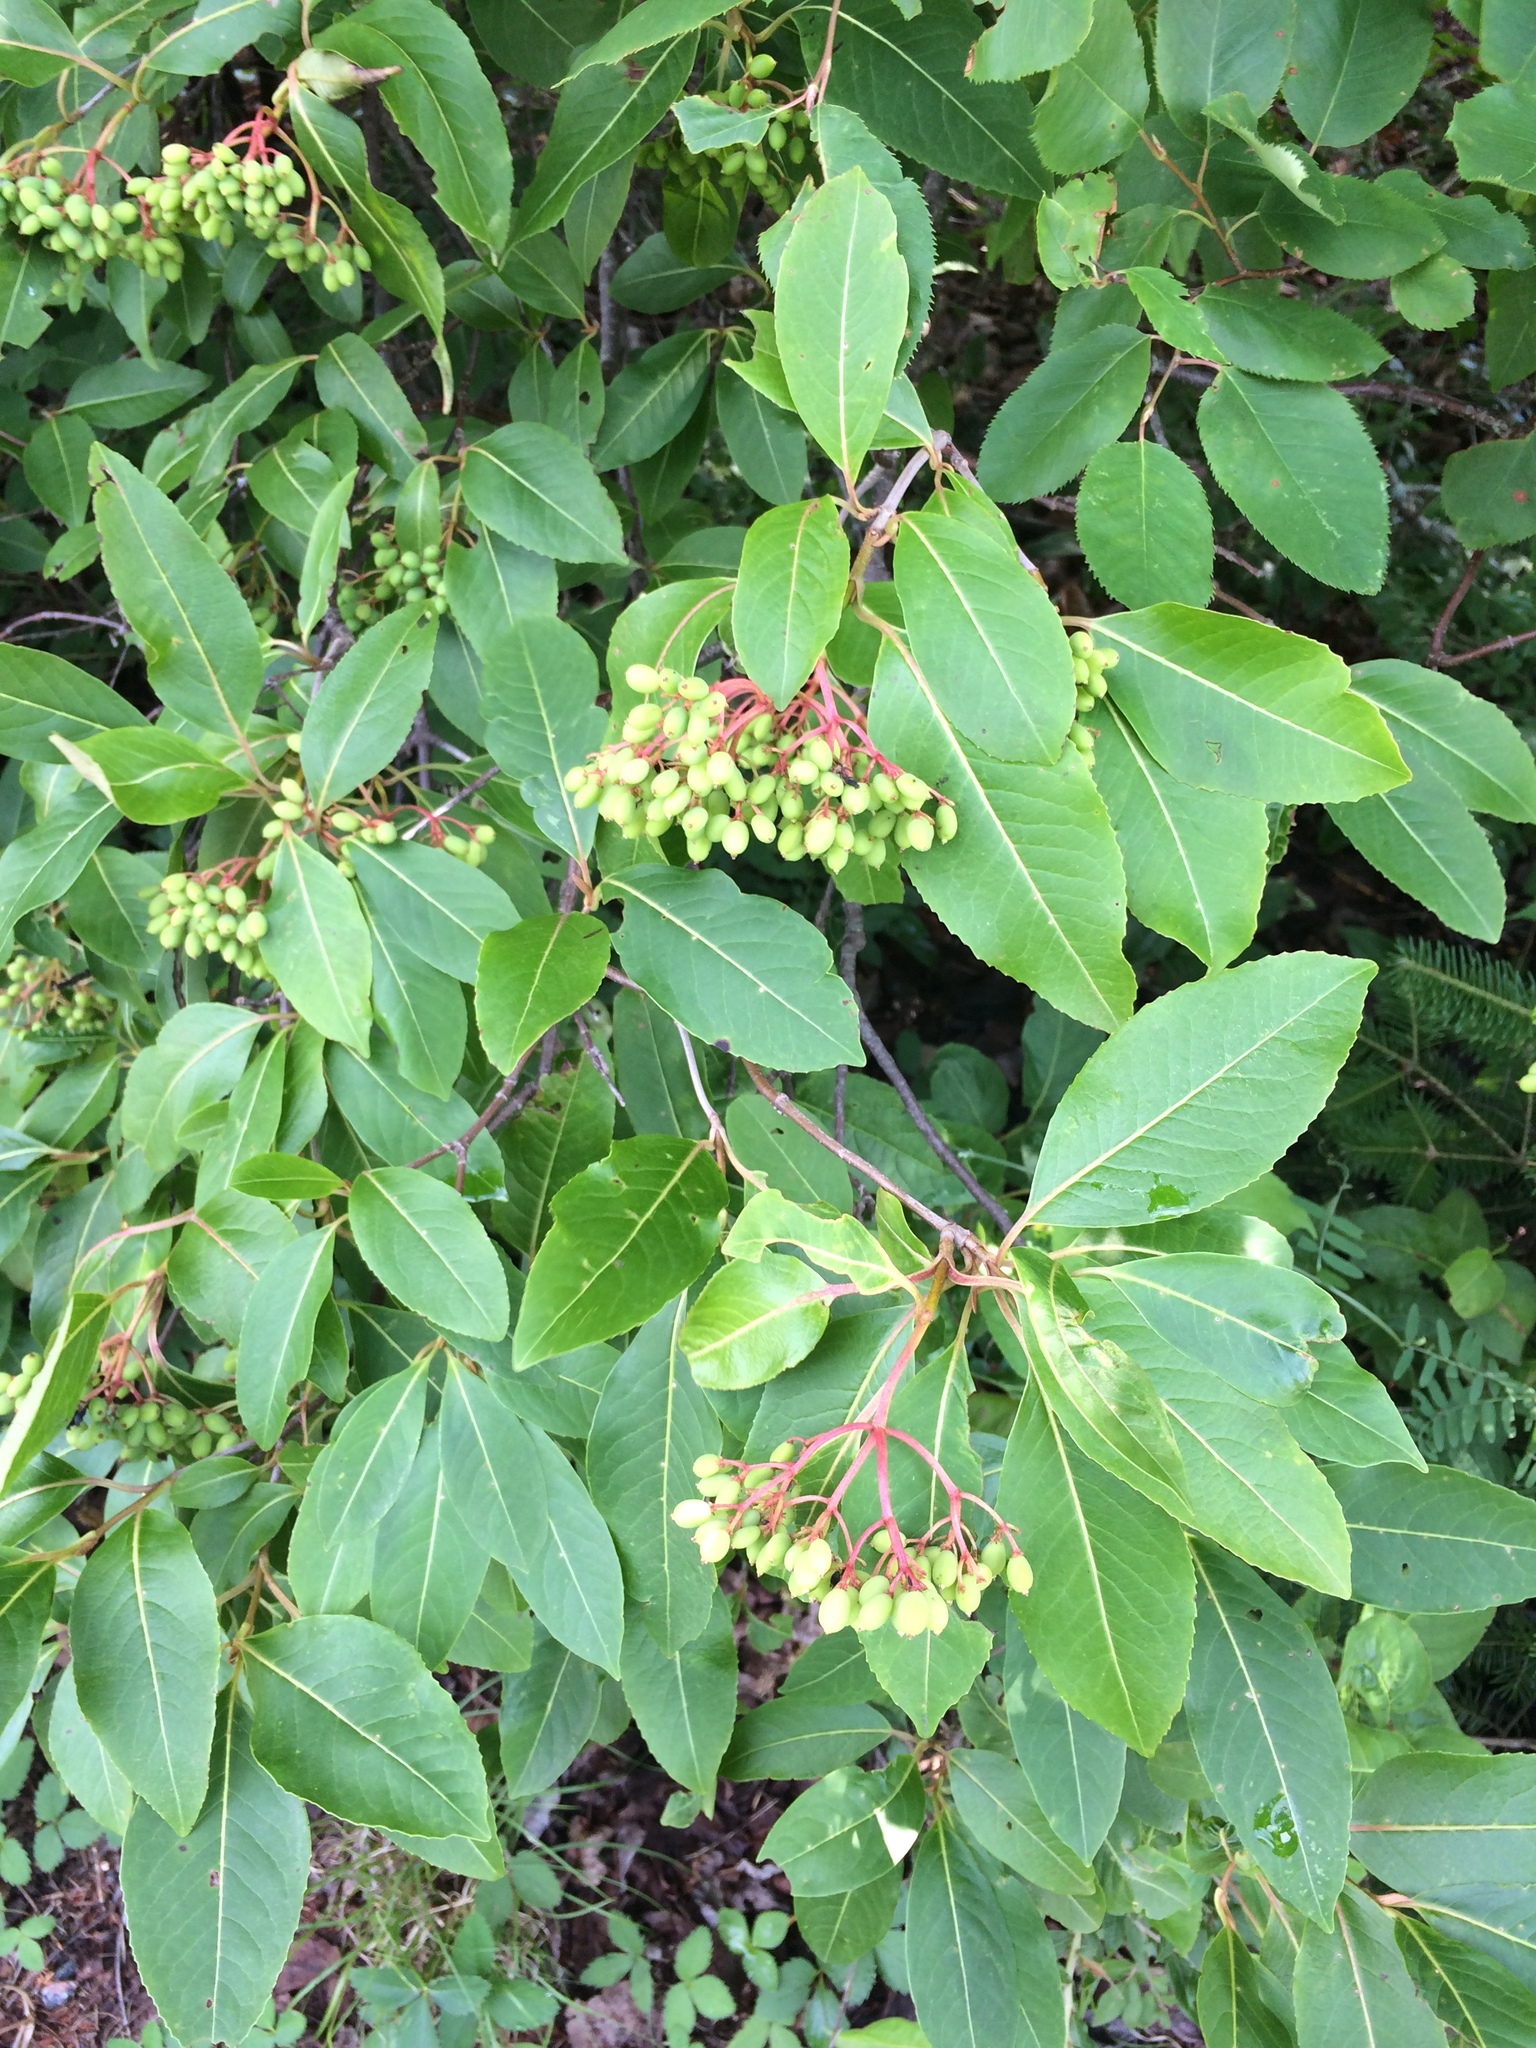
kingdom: Plantae
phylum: Tracheophyta
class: Magnoliopsida
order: Dipsacales
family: Viburnaceae
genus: Viburnum
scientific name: Viburnum cassinoides
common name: Swamp haw
